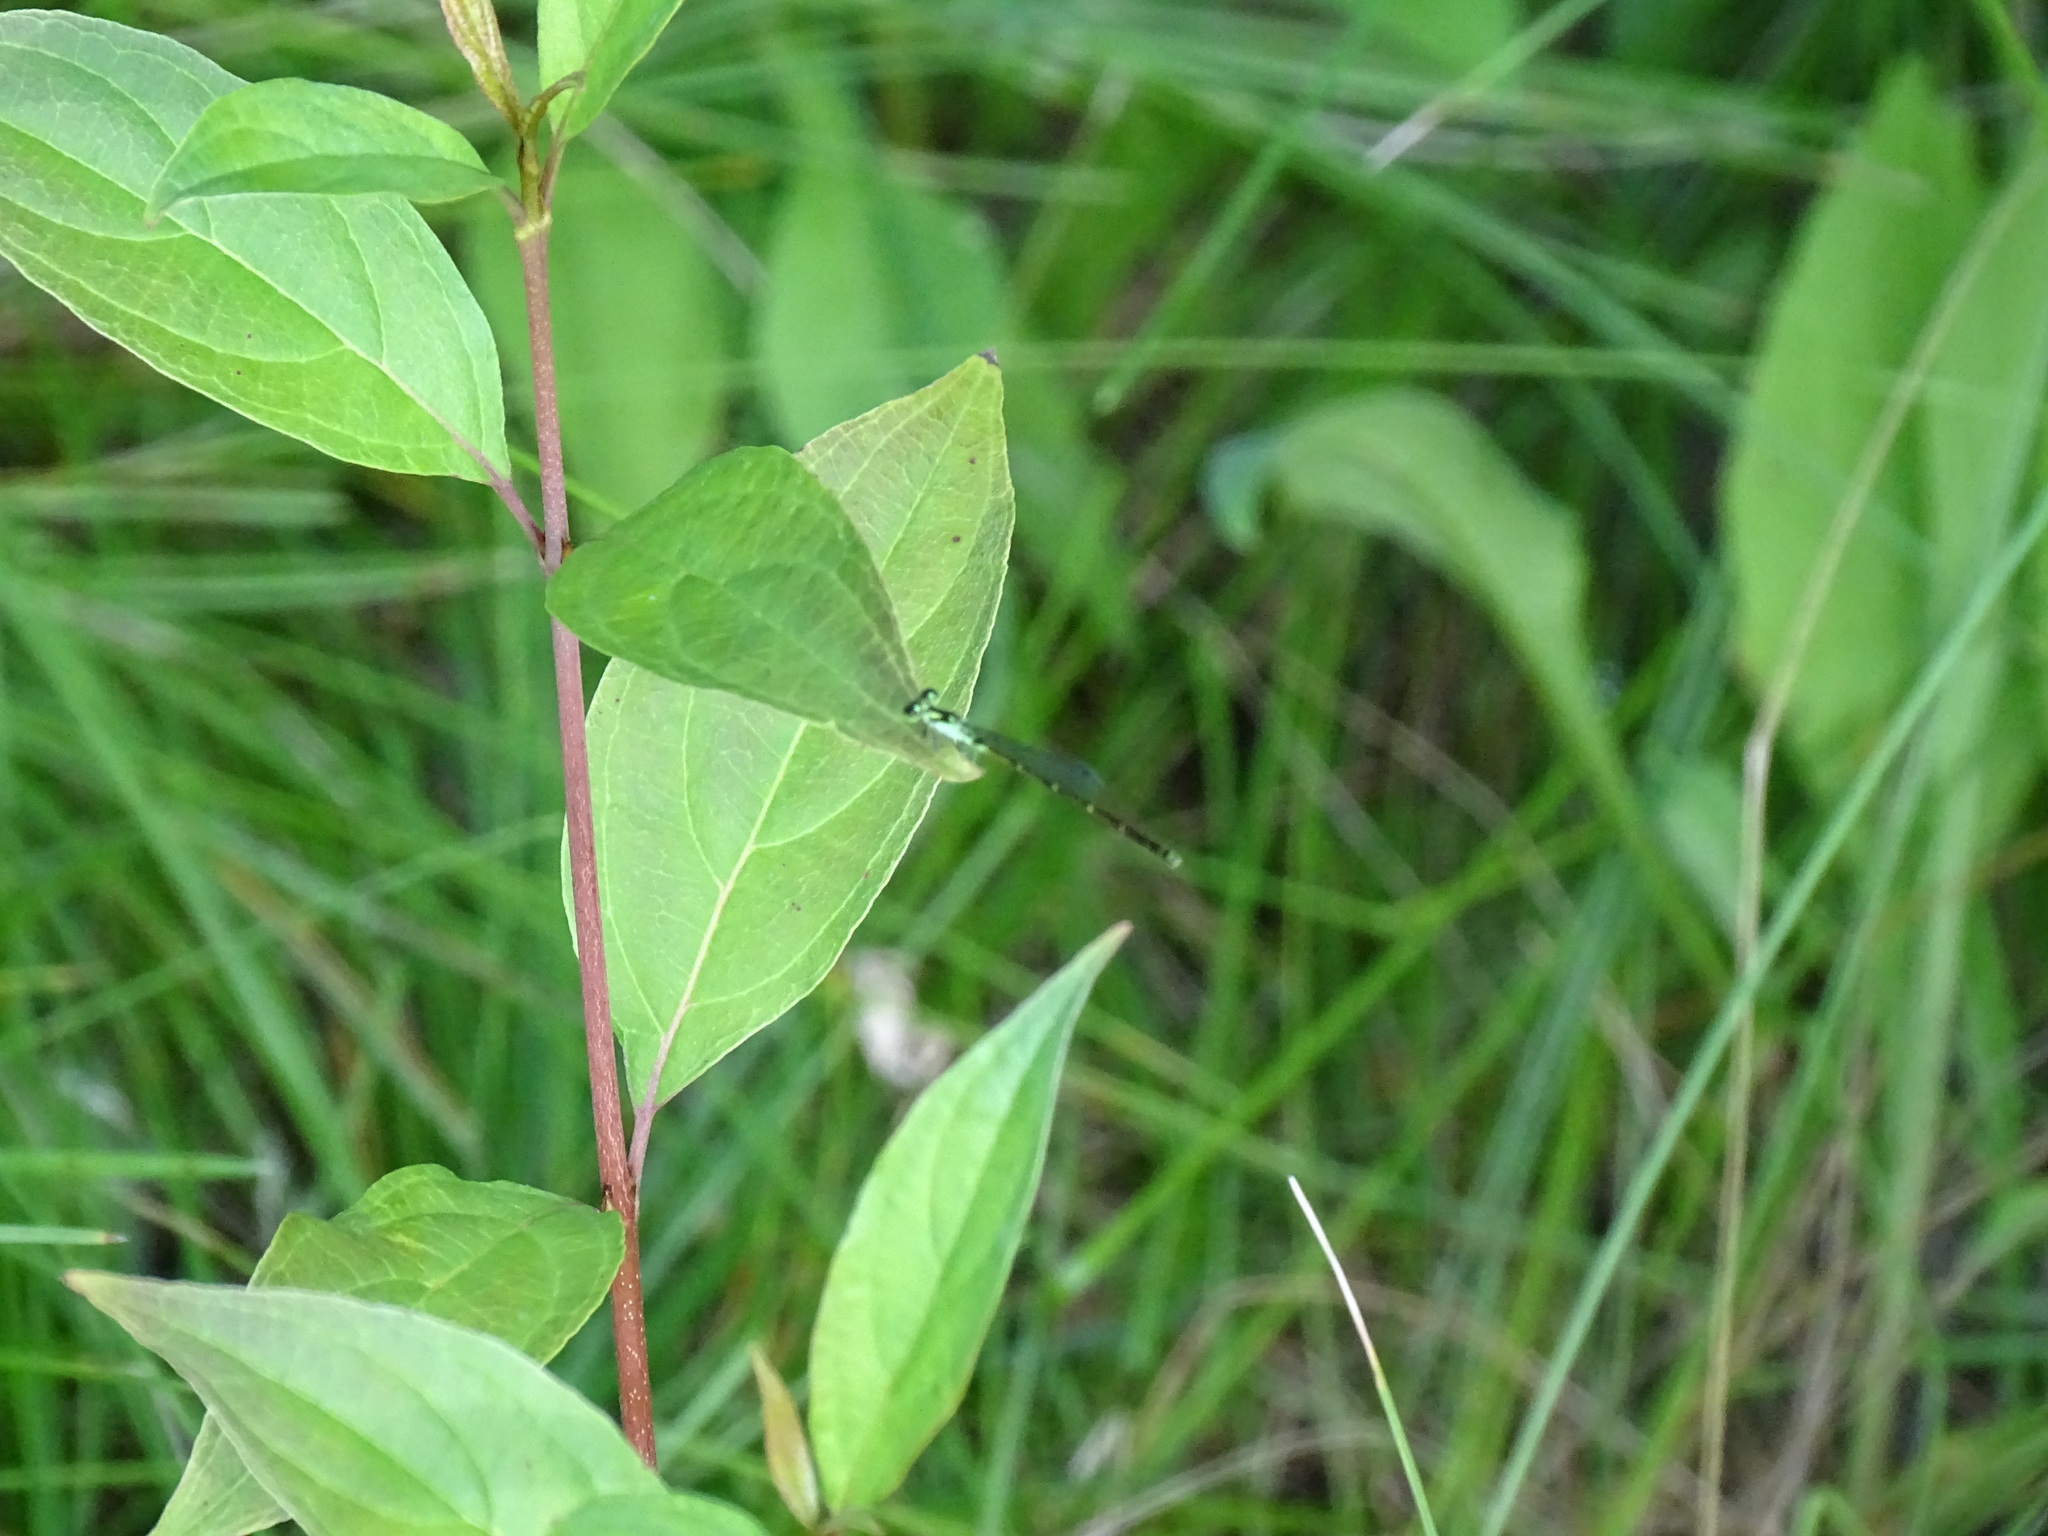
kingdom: Animalia
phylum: Arthropoda
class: Insecta
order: Odonata
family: Coenagrionidae
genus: Ischnura
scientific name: Ischnura posita
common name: Fragile forktail
